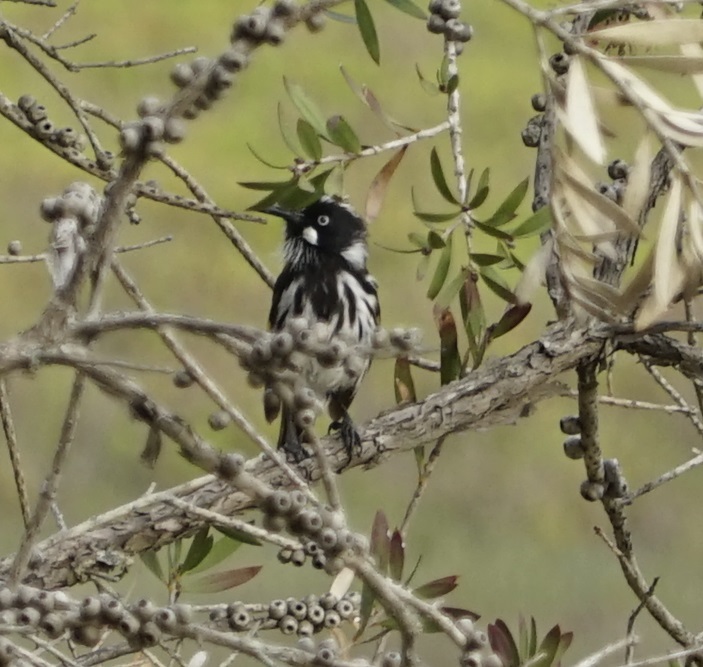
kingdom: Animalia
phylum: Chordata
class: Aves
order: Passeriformes
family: Meliphagidae
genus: Phylidonyris
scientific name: Phylidonyris novaehollandiae
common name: New holland honeyeater
